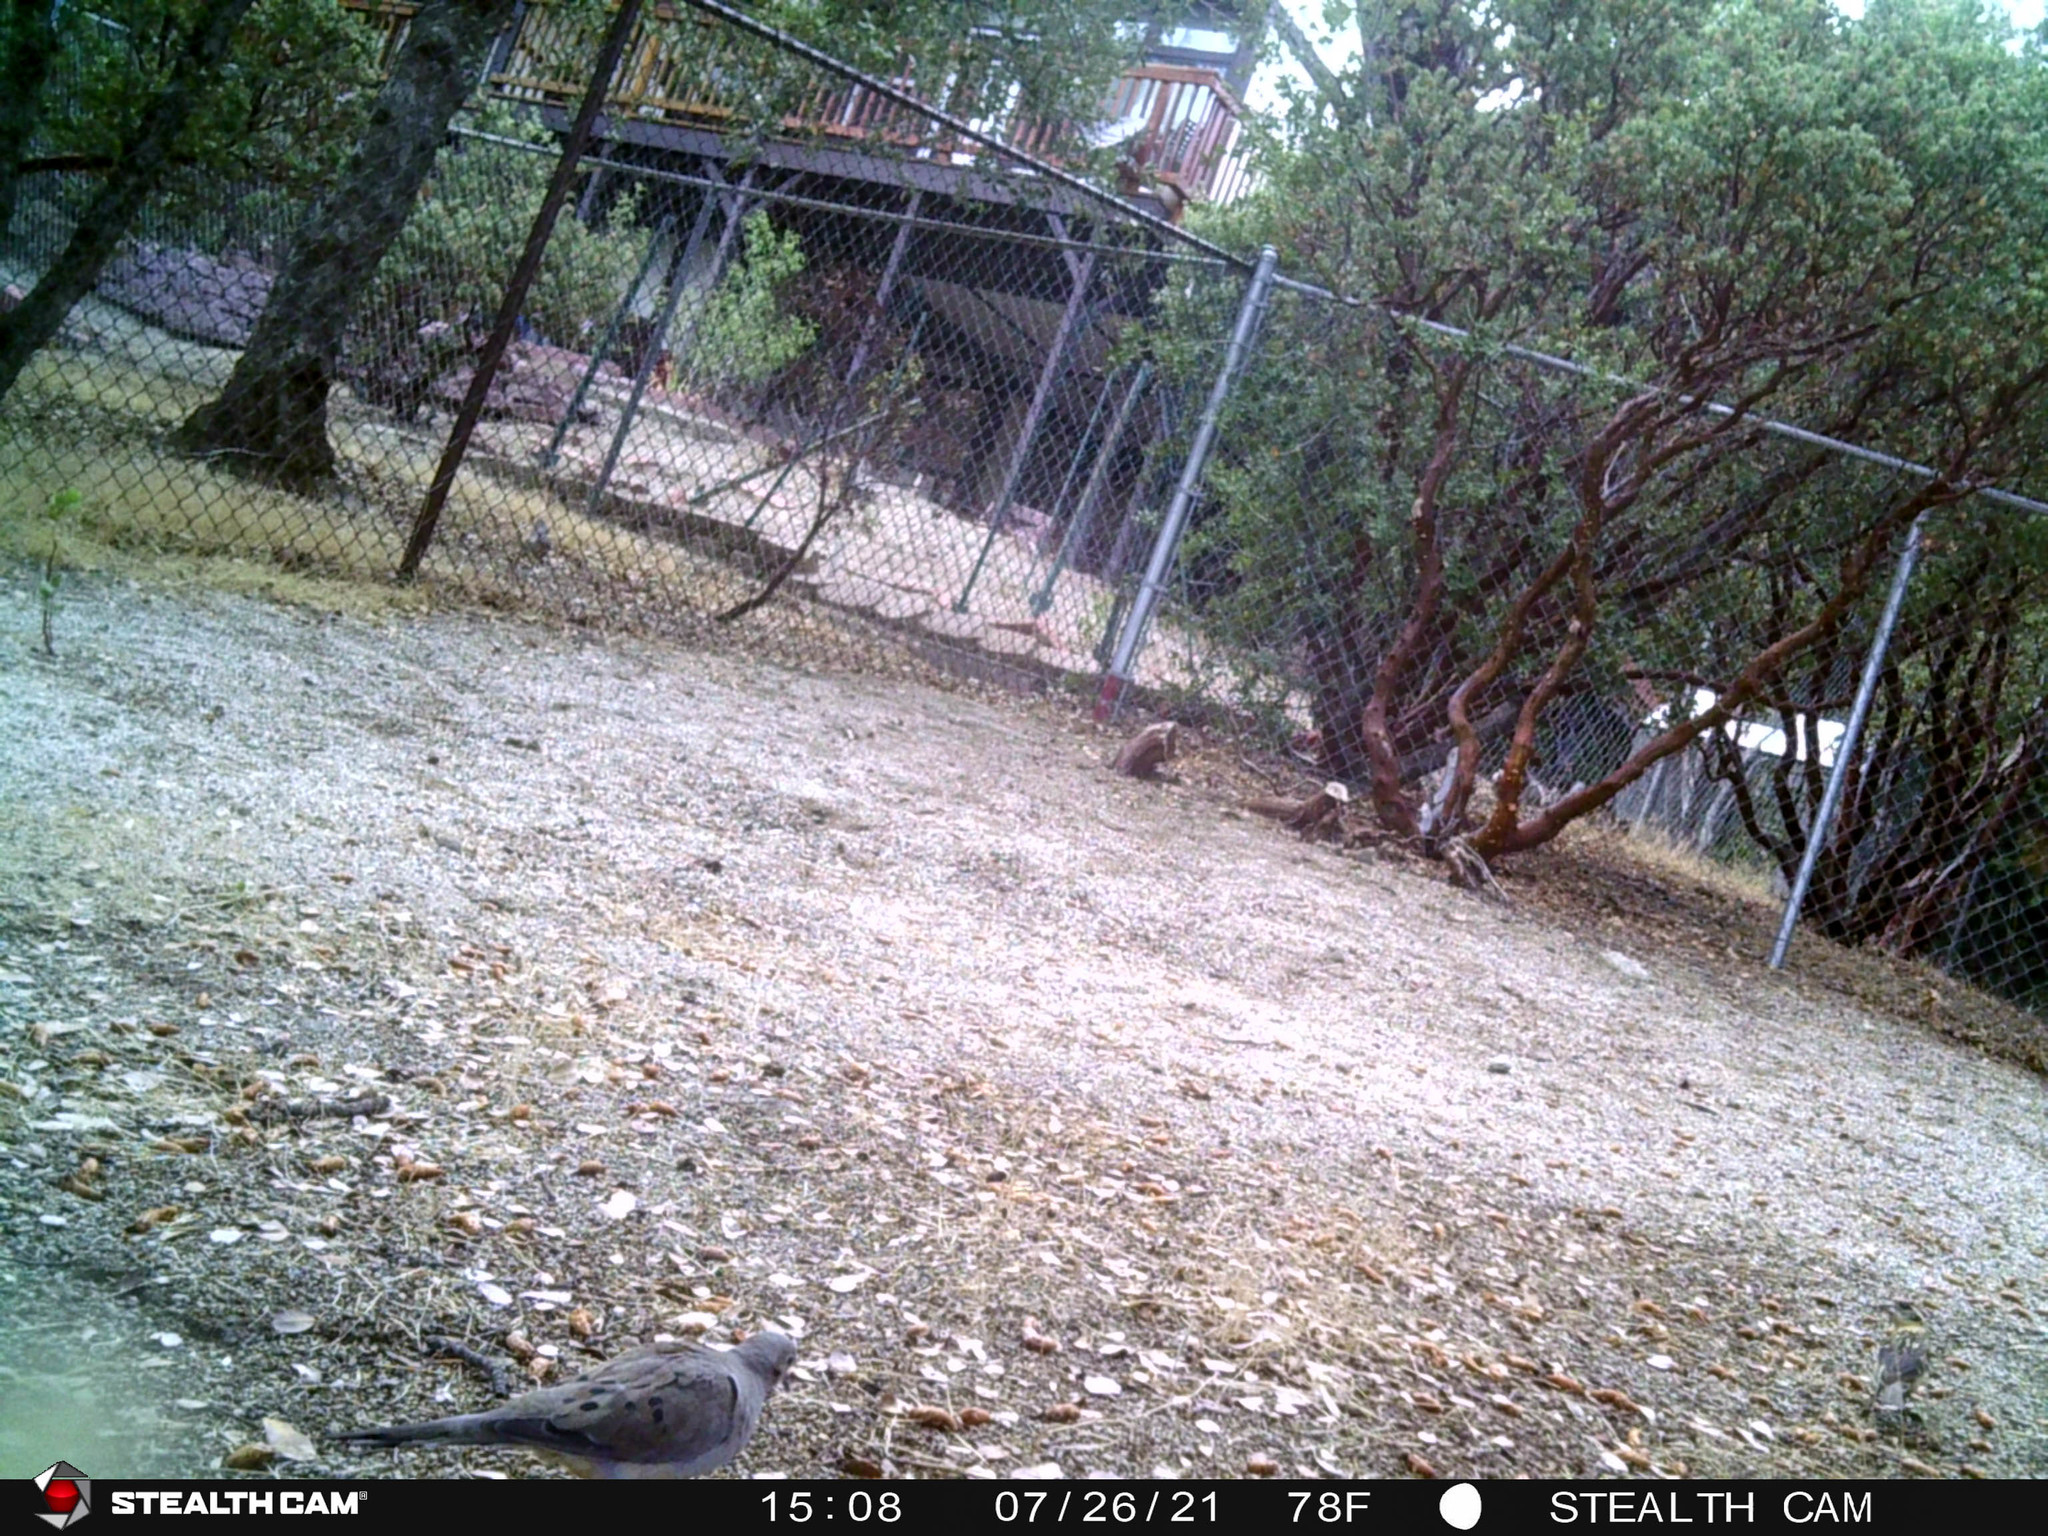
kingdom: Animalia
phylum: Chordata
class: Aves
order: Columbiformes
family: Columbidae
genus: Zenaida
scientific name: Zenaida macroura
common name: Mourning dove
